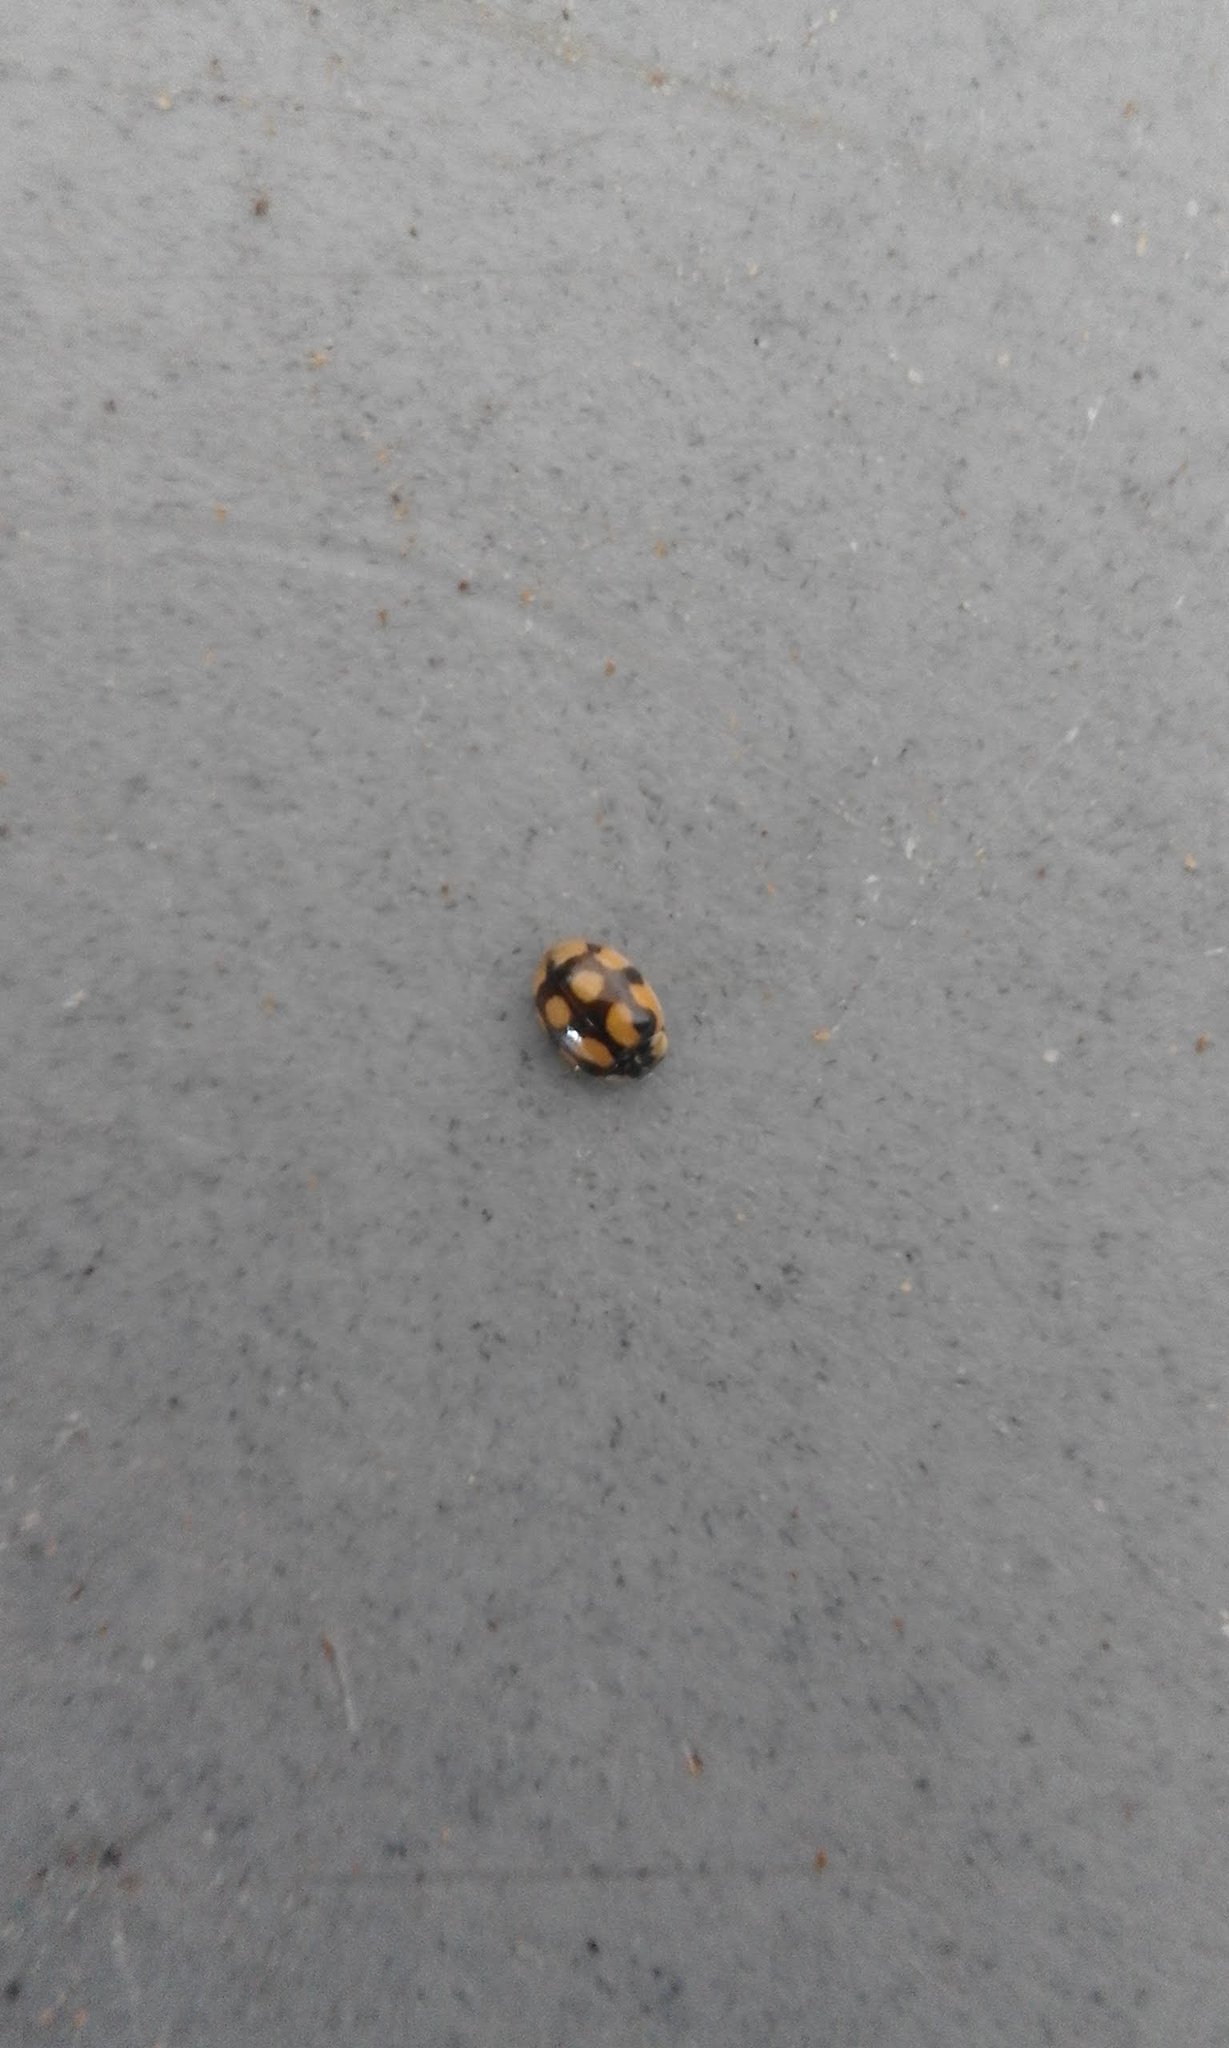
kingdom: Animalia
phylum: Arthropoda
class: Insecta
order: Coleoptera
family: Coccinellidae
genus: Adalia
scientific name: Adalia decempunctata
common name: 10-spot ladybird
